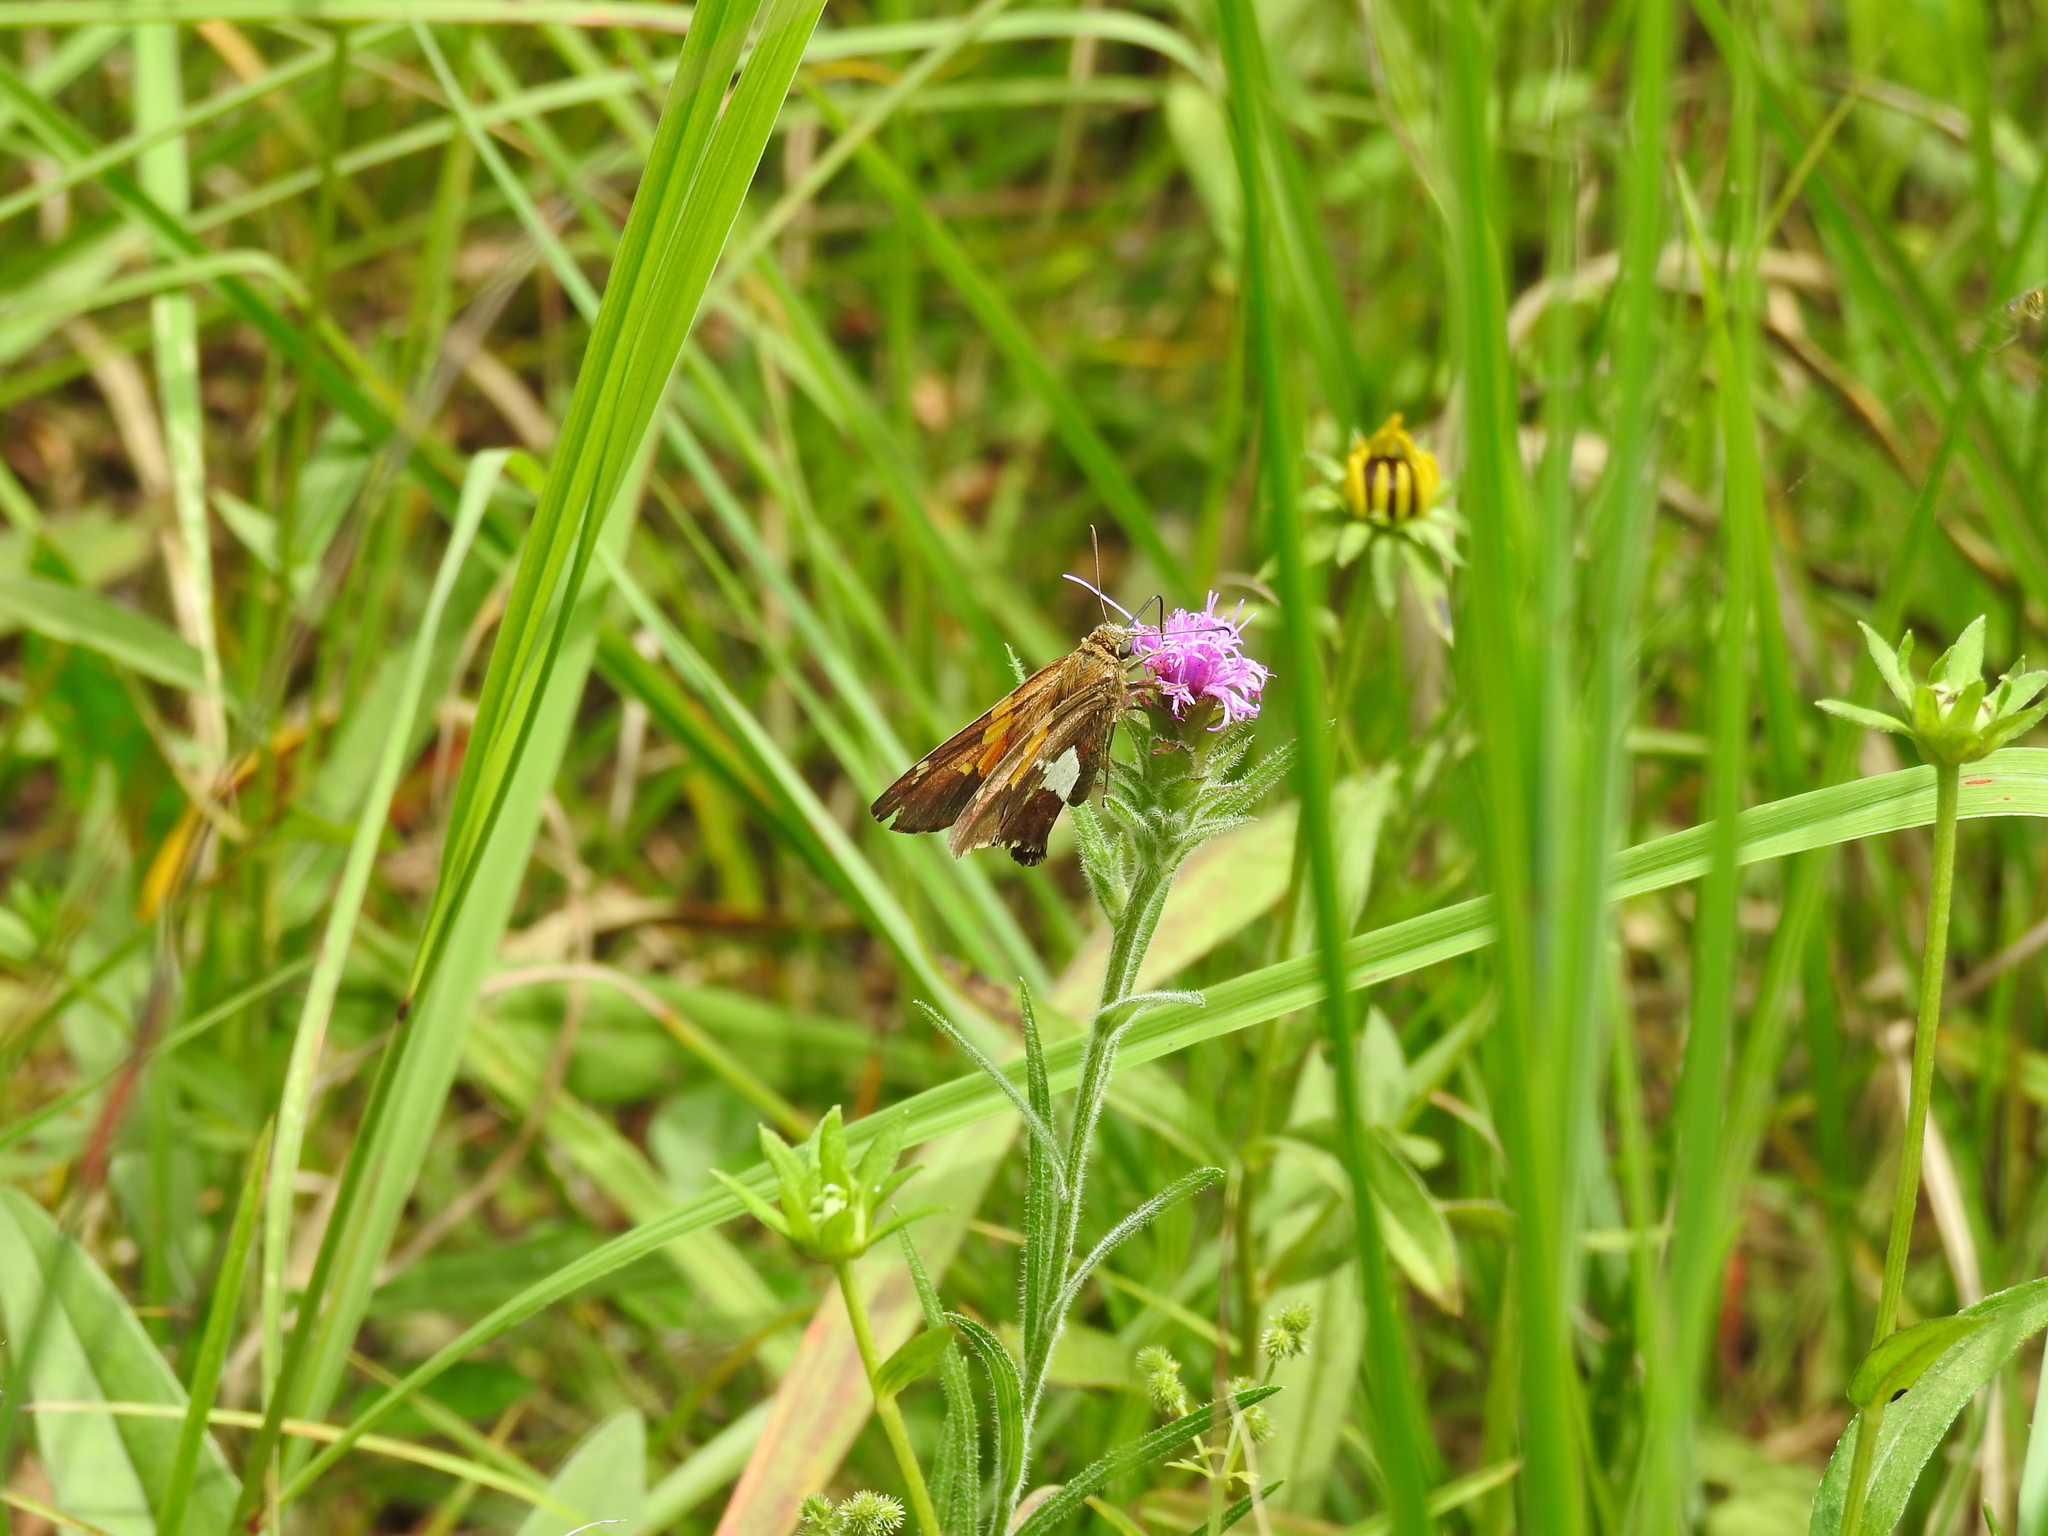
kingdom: Animalia
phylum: Arthropoda
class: Insecta
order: Lepidoptera
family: Hesperiidae
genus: Epargyreus
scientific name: Epargyreus clarus
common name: Silver-spotted skipper
